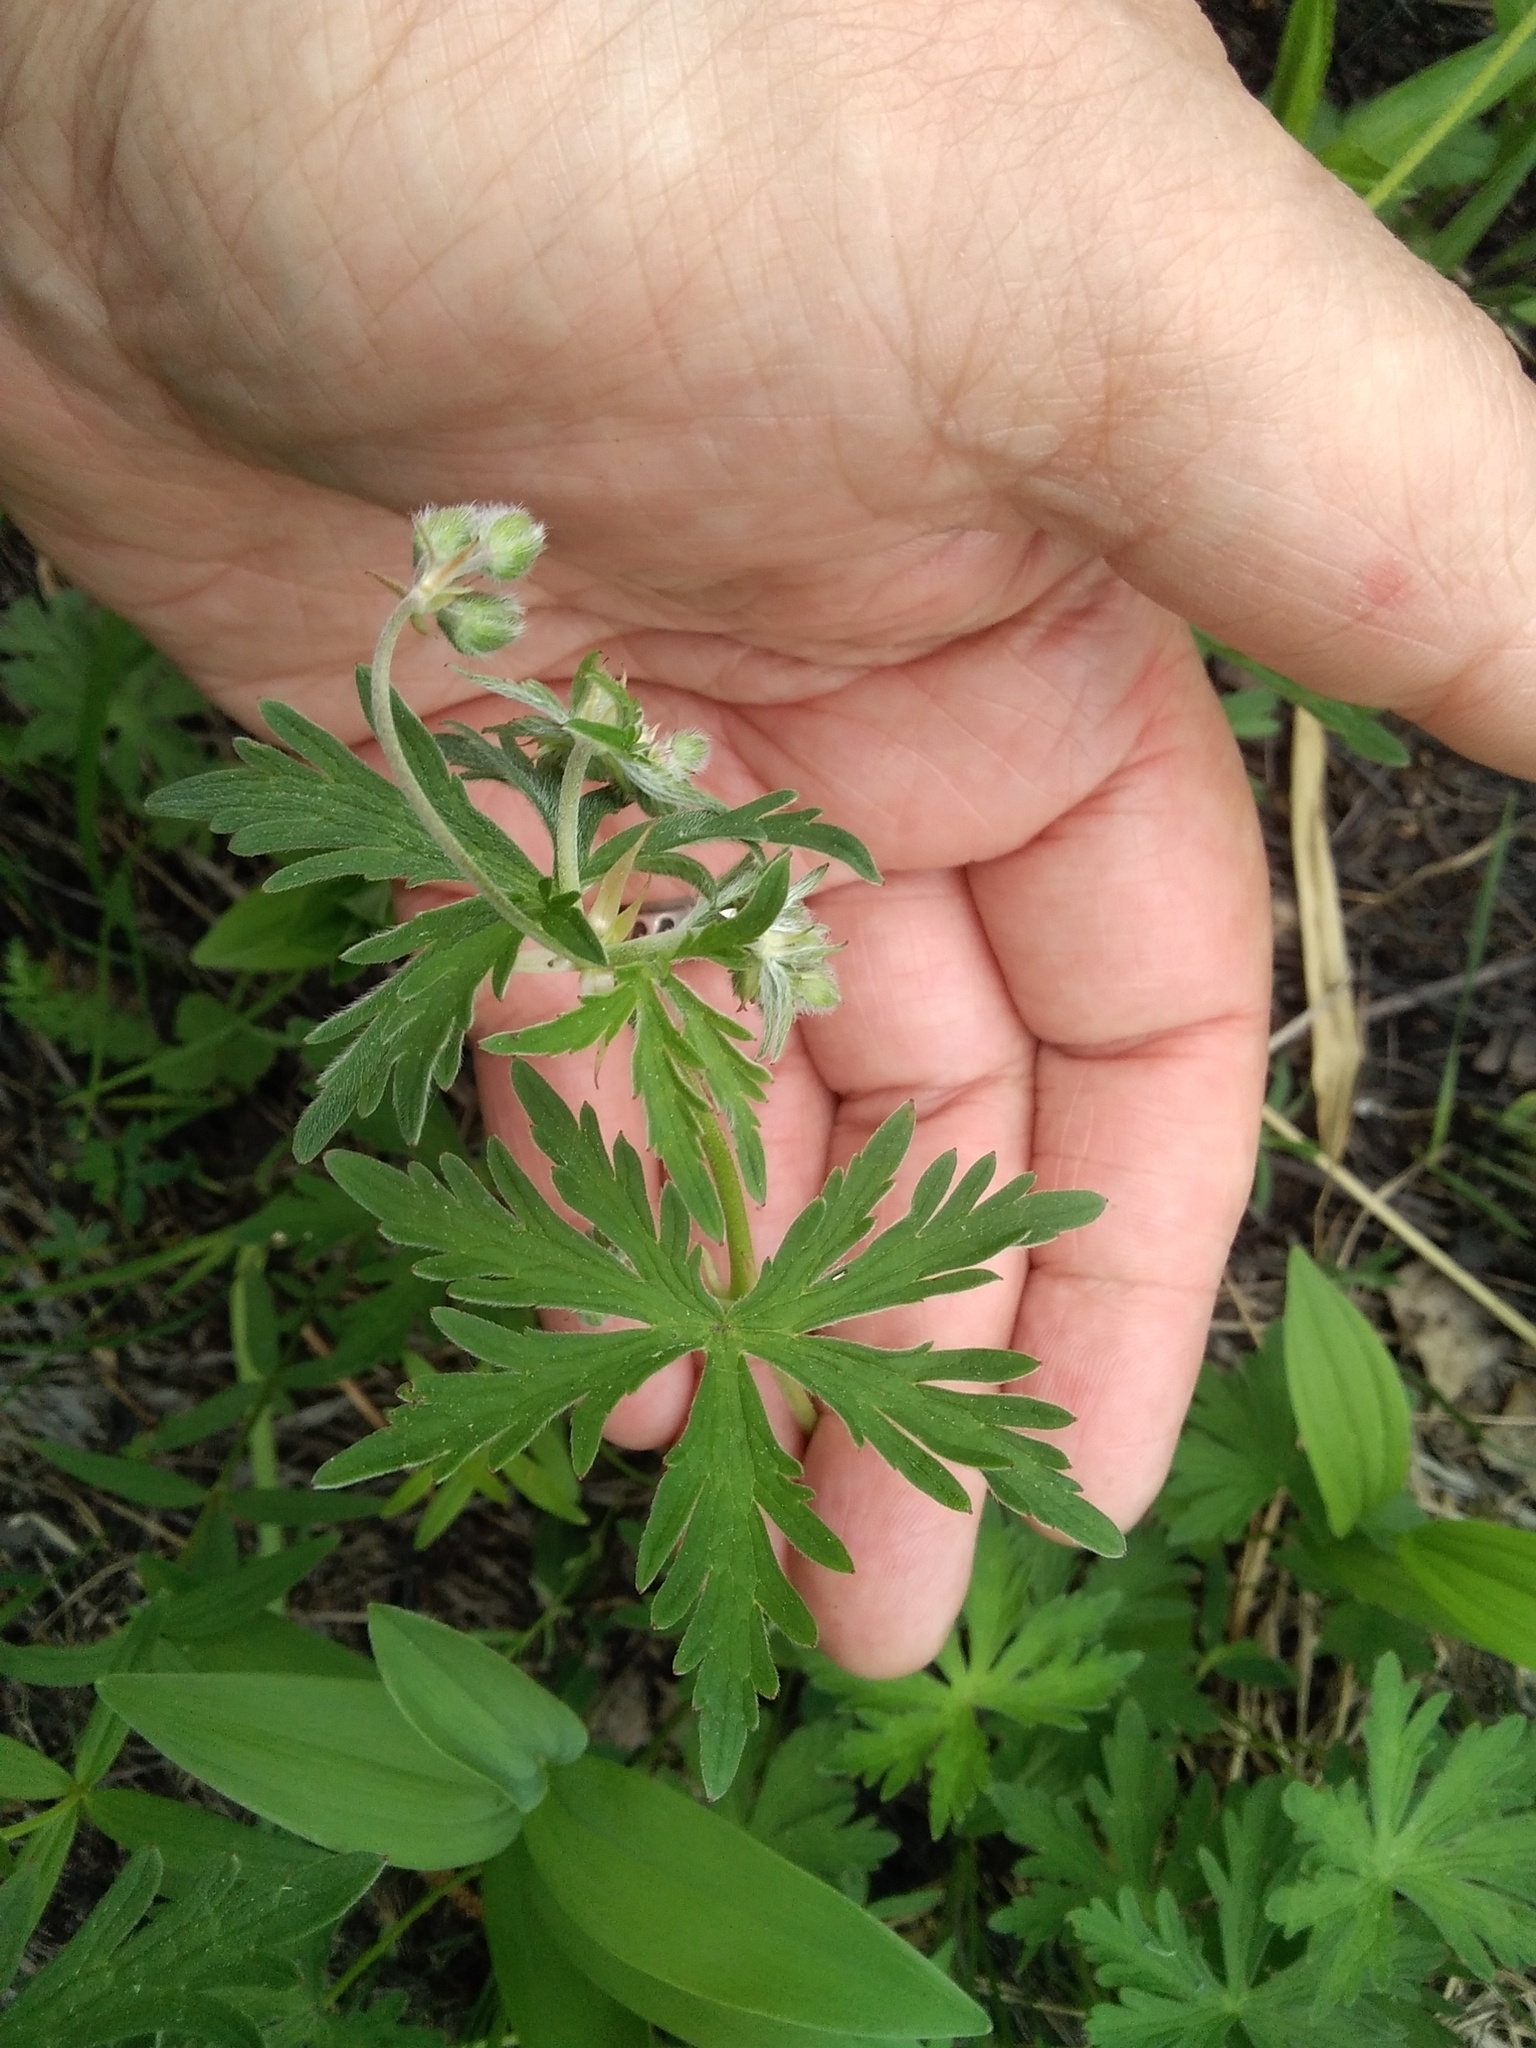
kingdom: Plantae
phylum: Tracheophyta
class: Magnoliopsida
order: Geraniales
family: Geraniaceae
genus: Geranium
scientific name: Geranium pseudosibiricum
